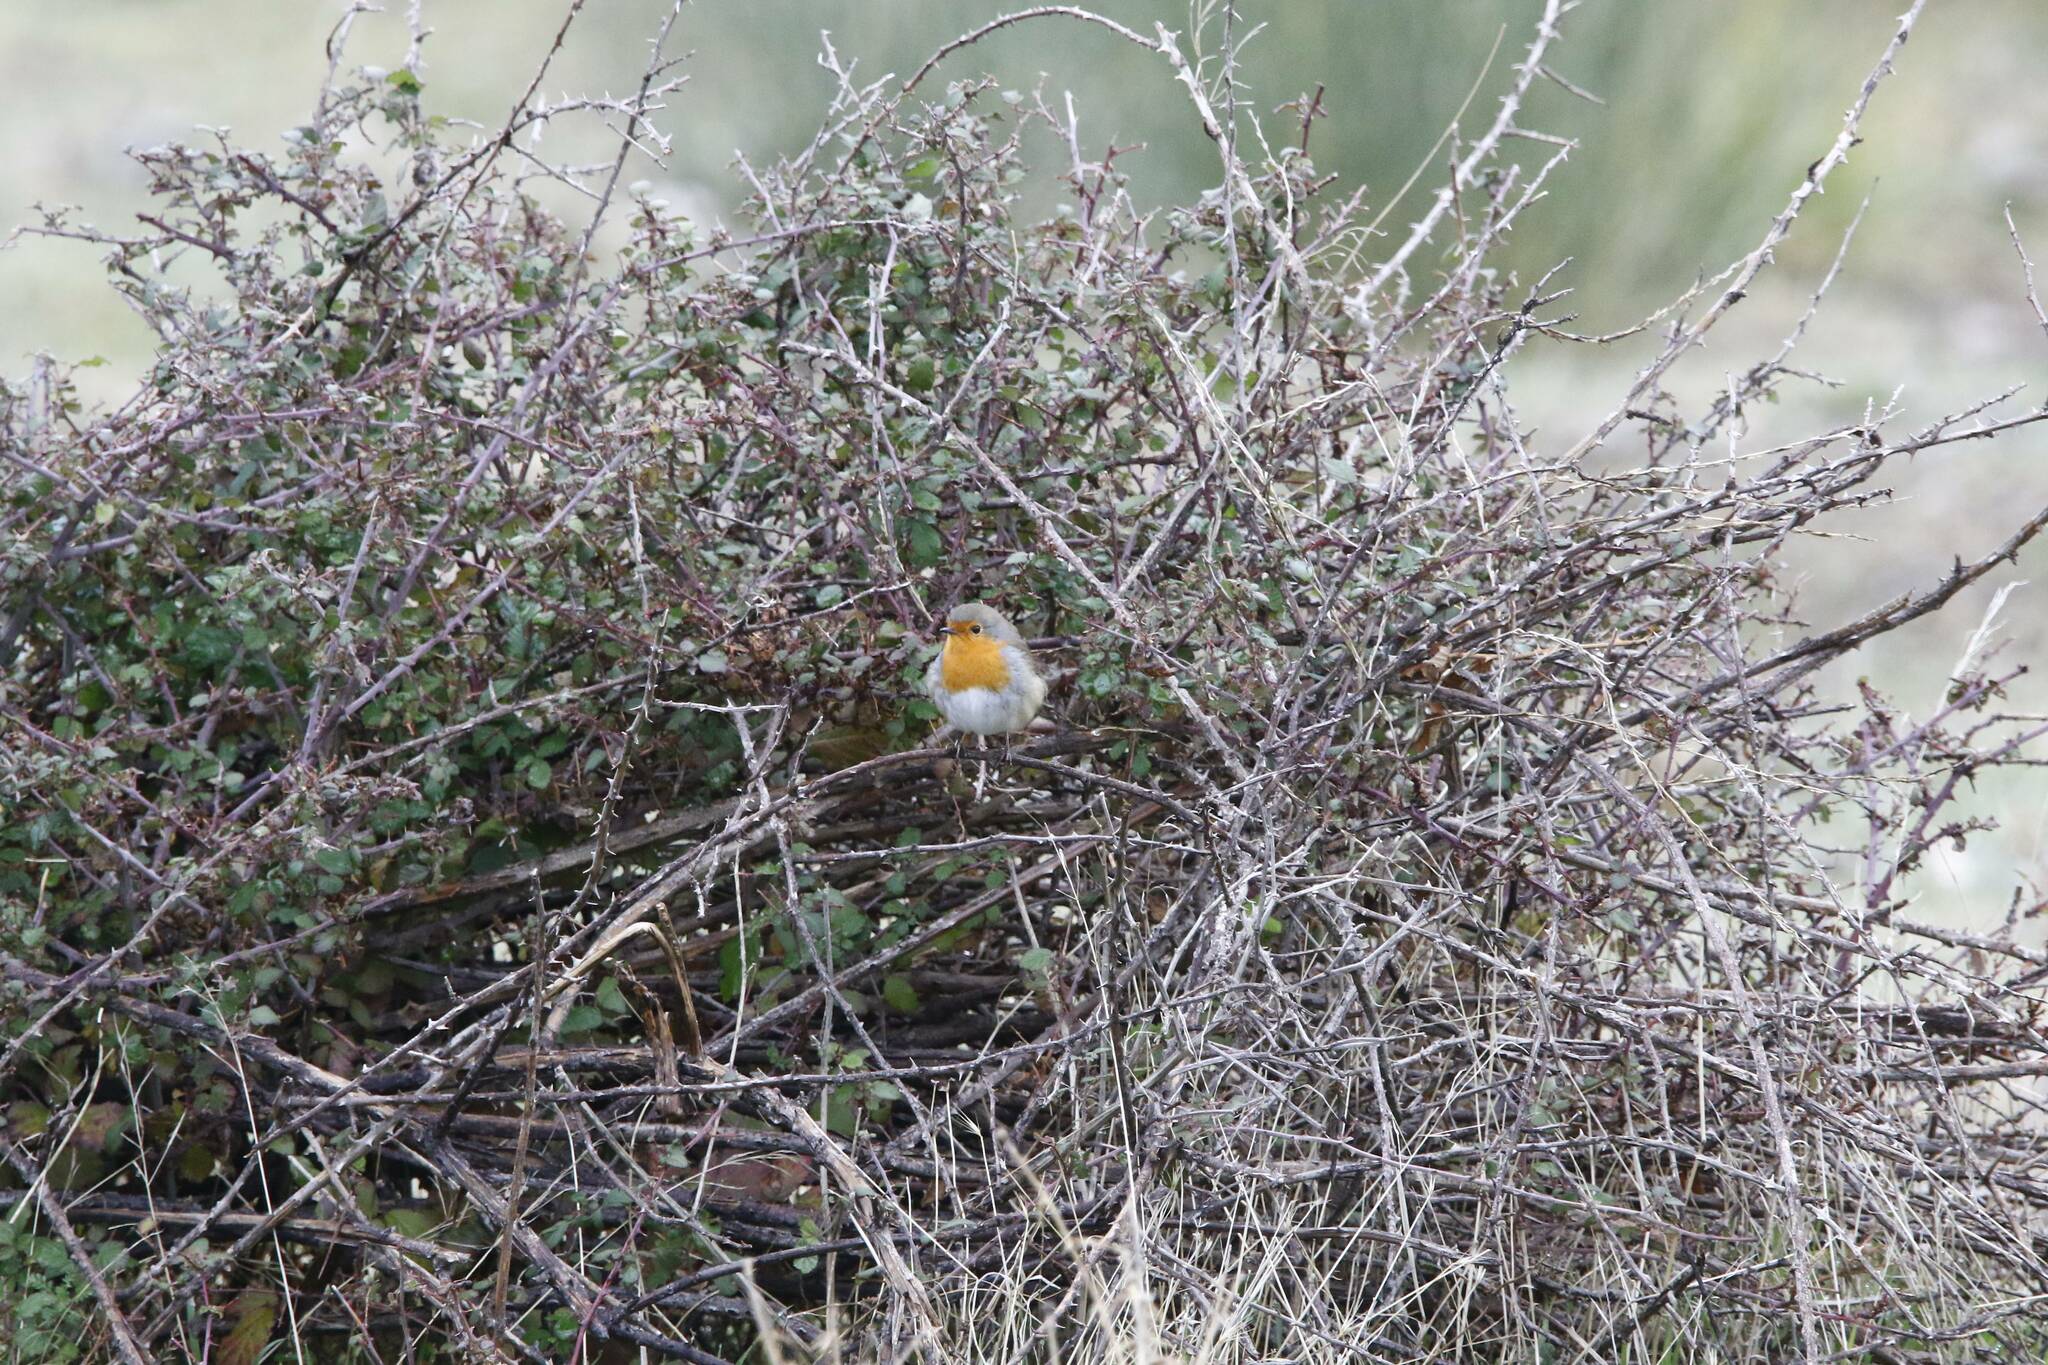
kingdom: Animalia
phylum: Chordata
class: Aves
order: Passeriformes
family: Muscicapidae
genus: Erithacus
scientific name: Erithacus rubecula
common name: European robin
